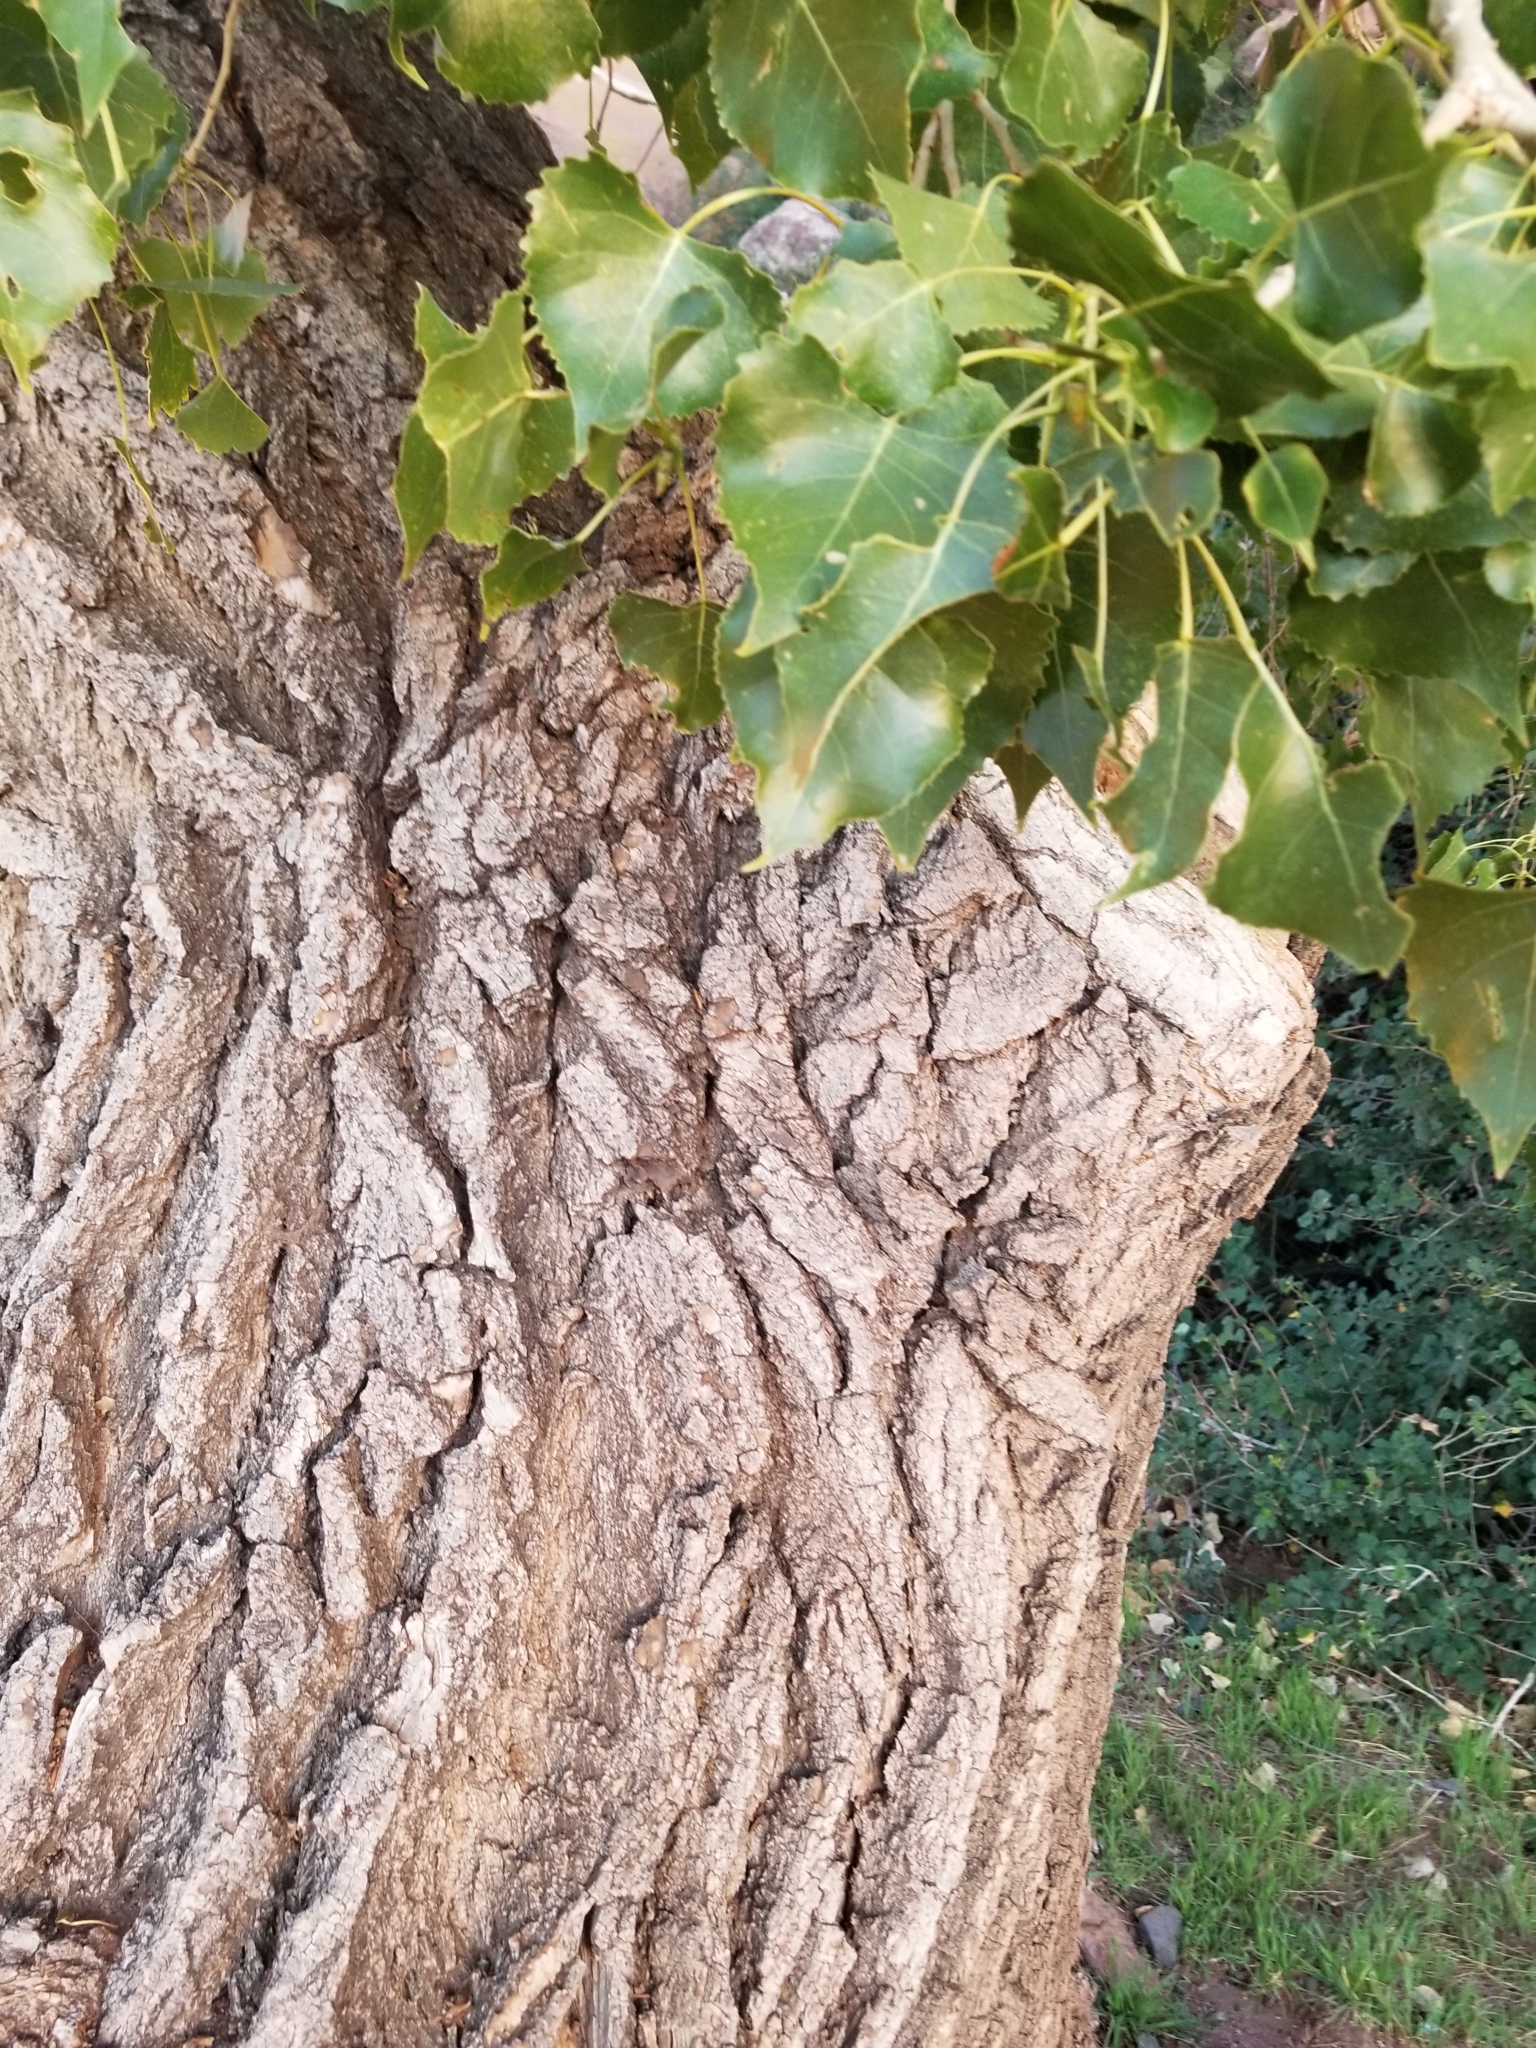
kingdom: Plantae
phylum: Tracheophyta
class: Magnoliopsida
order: Malpighiales
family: Salicaceae
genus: Populus
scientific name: Populus deltoides
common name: Eastern cottonwood
